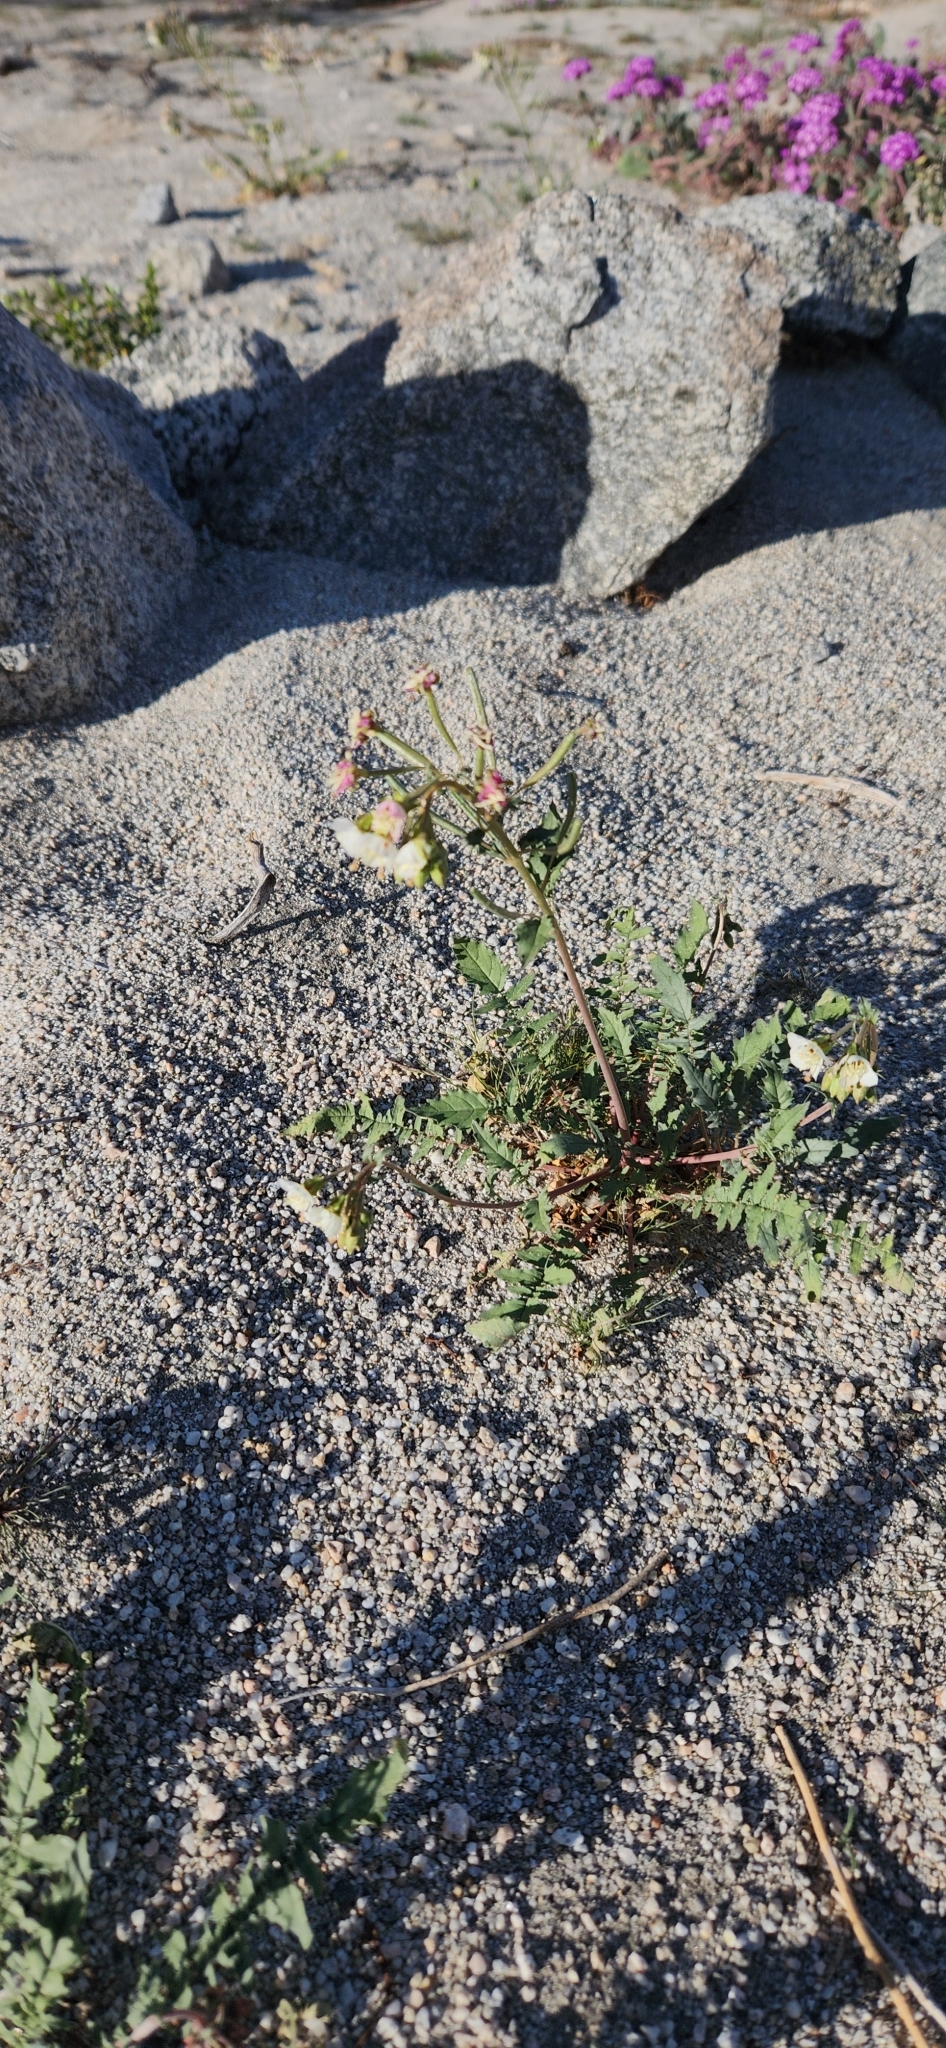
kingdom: Plantae
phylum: Tracheophyta
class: Magnoliopsida
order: Myrtales
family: Onagraceae
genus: Chylismia
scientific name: Chylismia claviformis
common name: Browneyes
